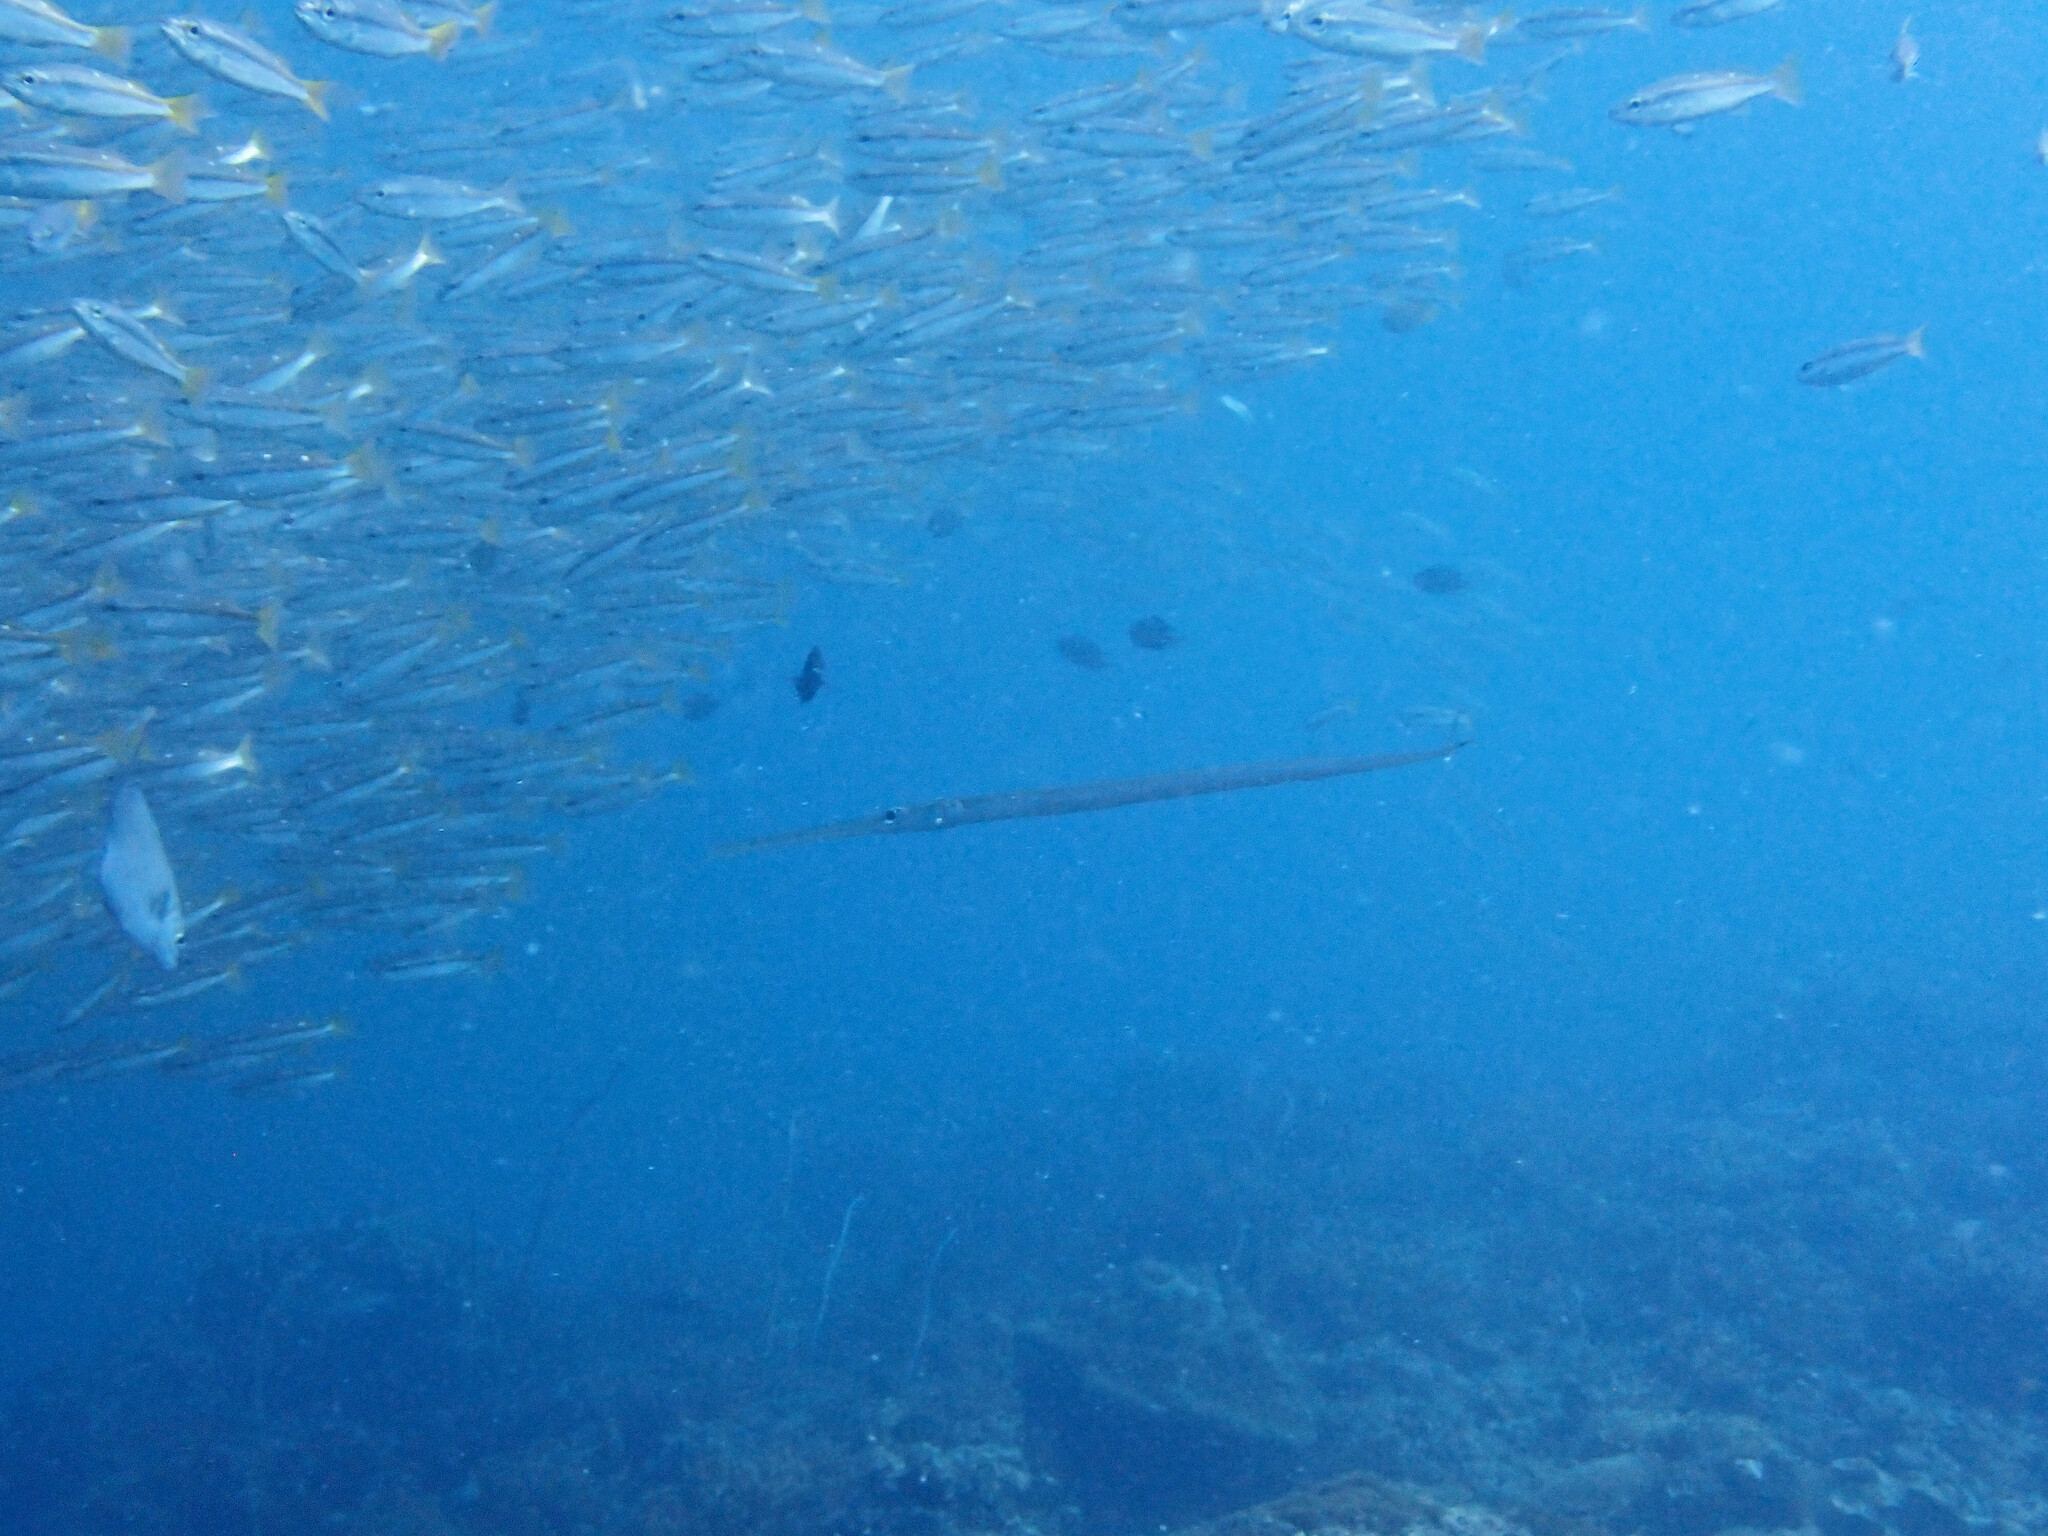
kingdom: Animalia
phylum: Chordata
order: Syngnathiformes
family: Fistulariidae
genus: Fistularia
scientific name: Fistularia commersonii
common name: Bluespotted cornetfish
